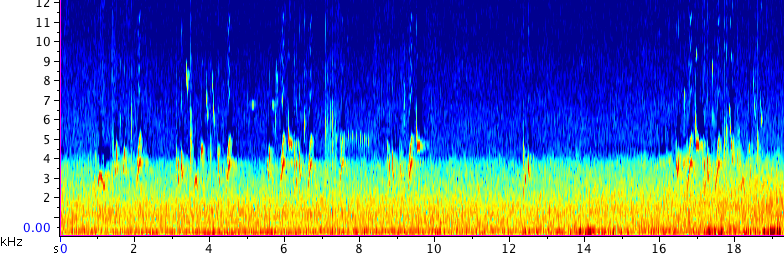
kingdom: Animalia
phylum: Chordata
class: Aves
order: Passeriformes
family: Icteridae
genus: Icterus
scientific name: Icterus cucullatus
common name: Hooded oriole
